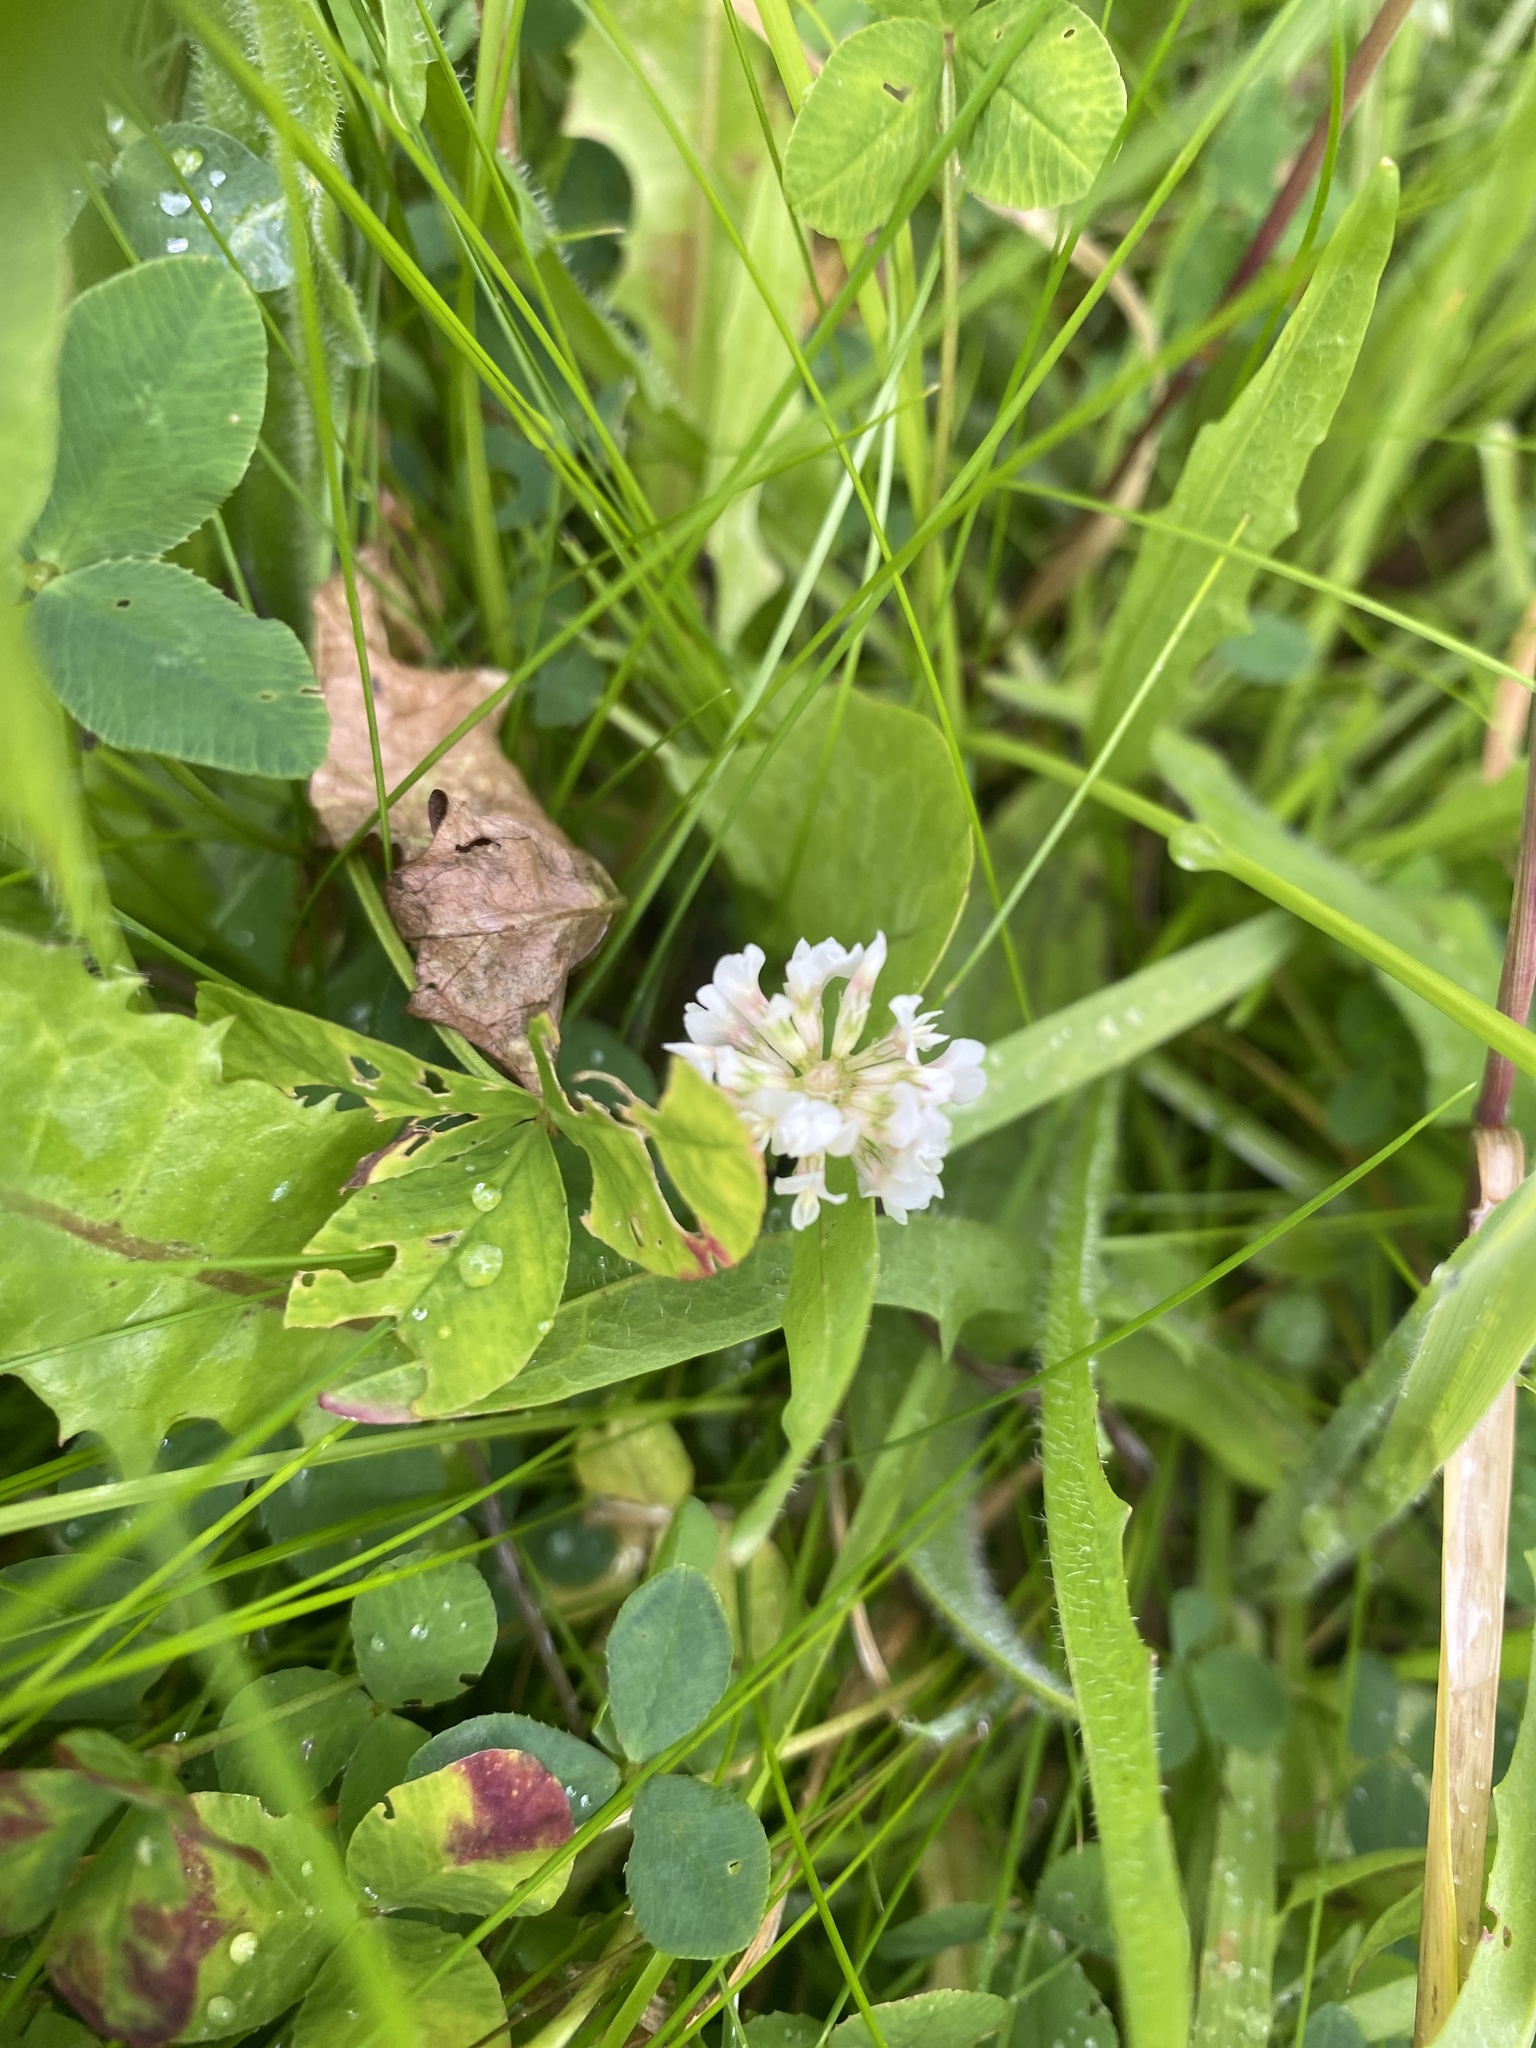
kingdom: Plantae
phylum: Tracheophyta
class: Magnoliopsida
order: Fabales
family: Fabaceae
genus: Trifolium
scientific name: Trifolium repens
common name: White clover
